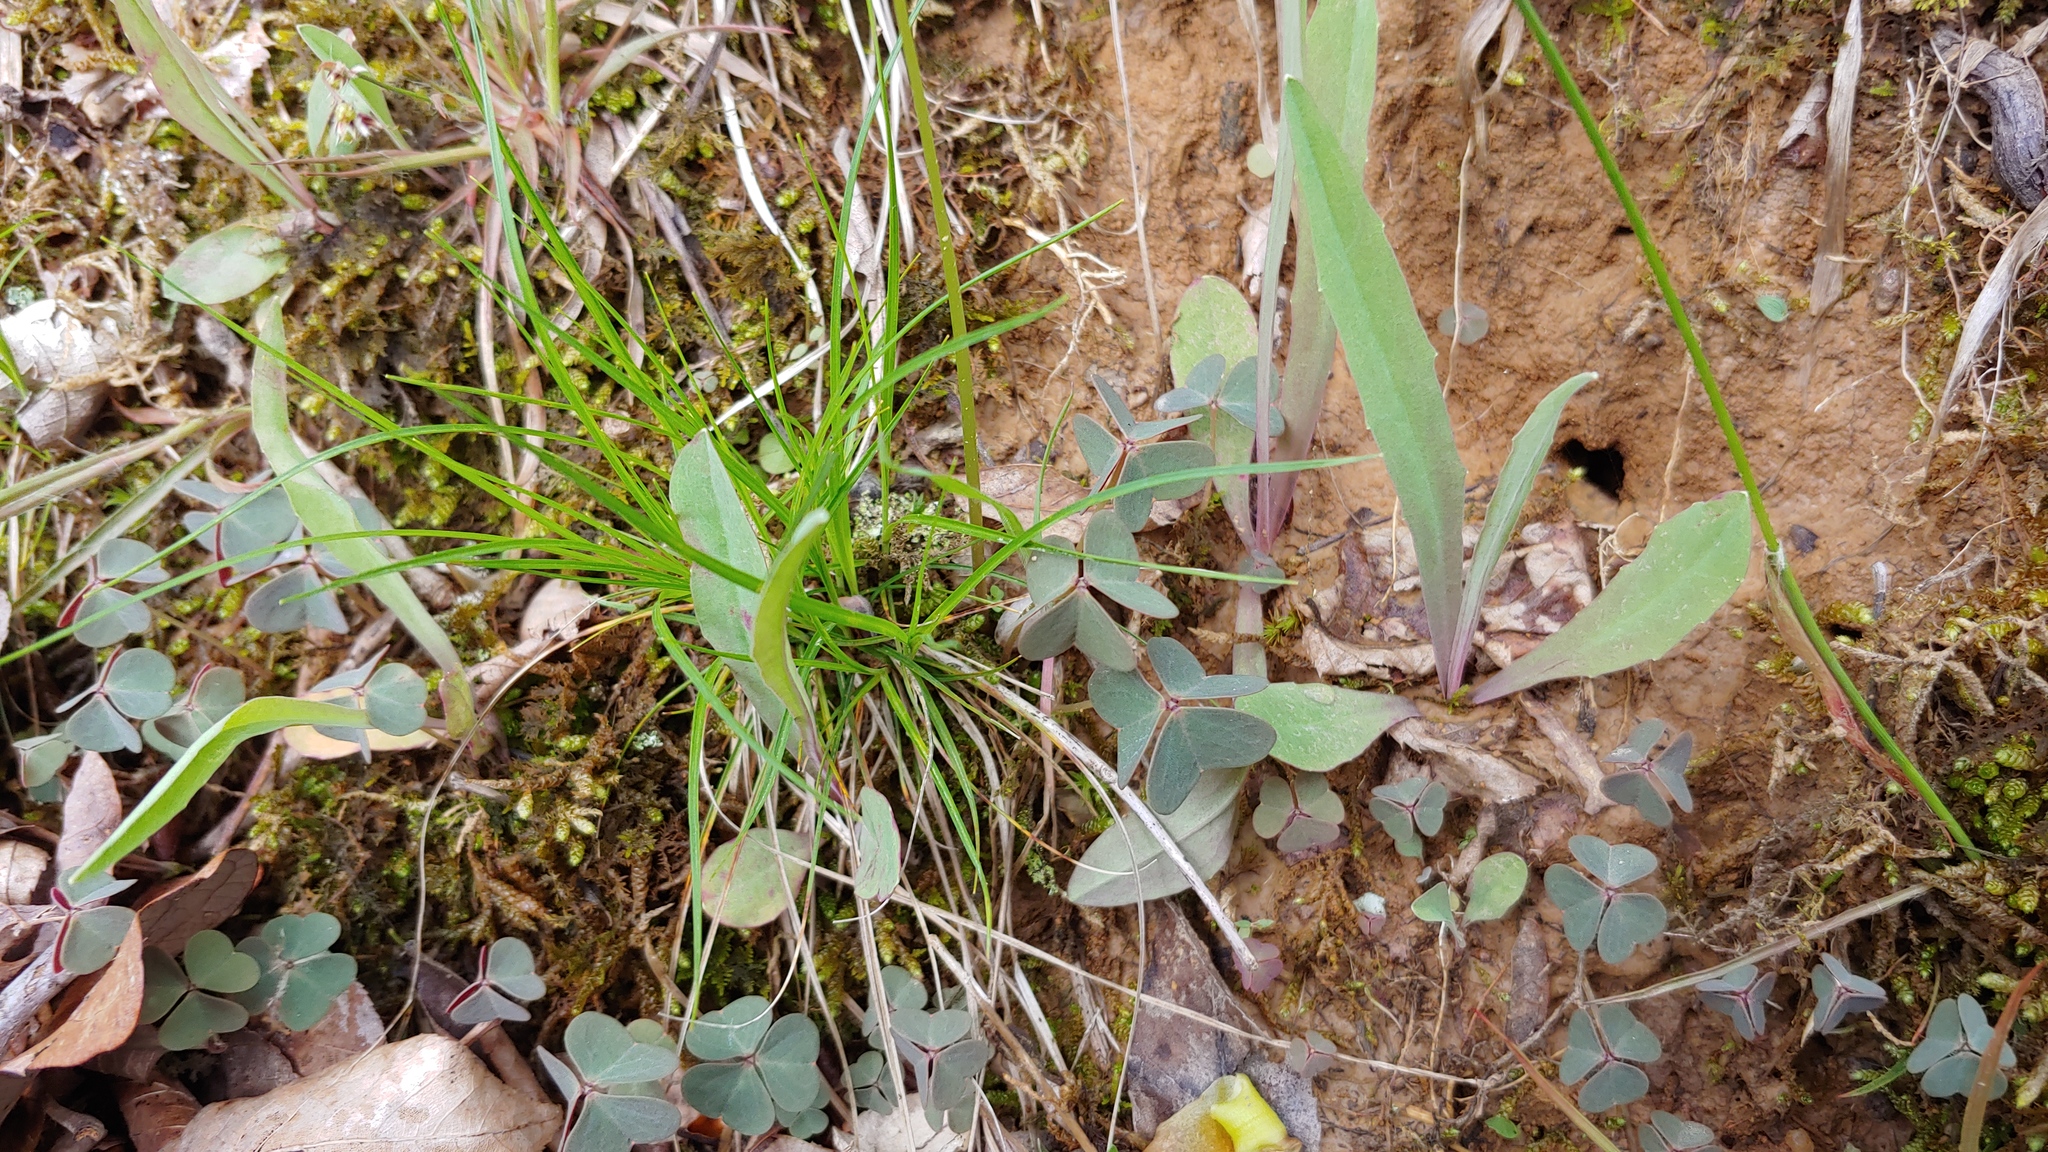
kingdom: Plantae
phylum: Tracheophyta
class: Magnoliopsida
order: Oxalidales
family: Oxalidaceae
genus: Oxalis
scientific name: Oxalis violacea
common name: Violet wood-sorrel
